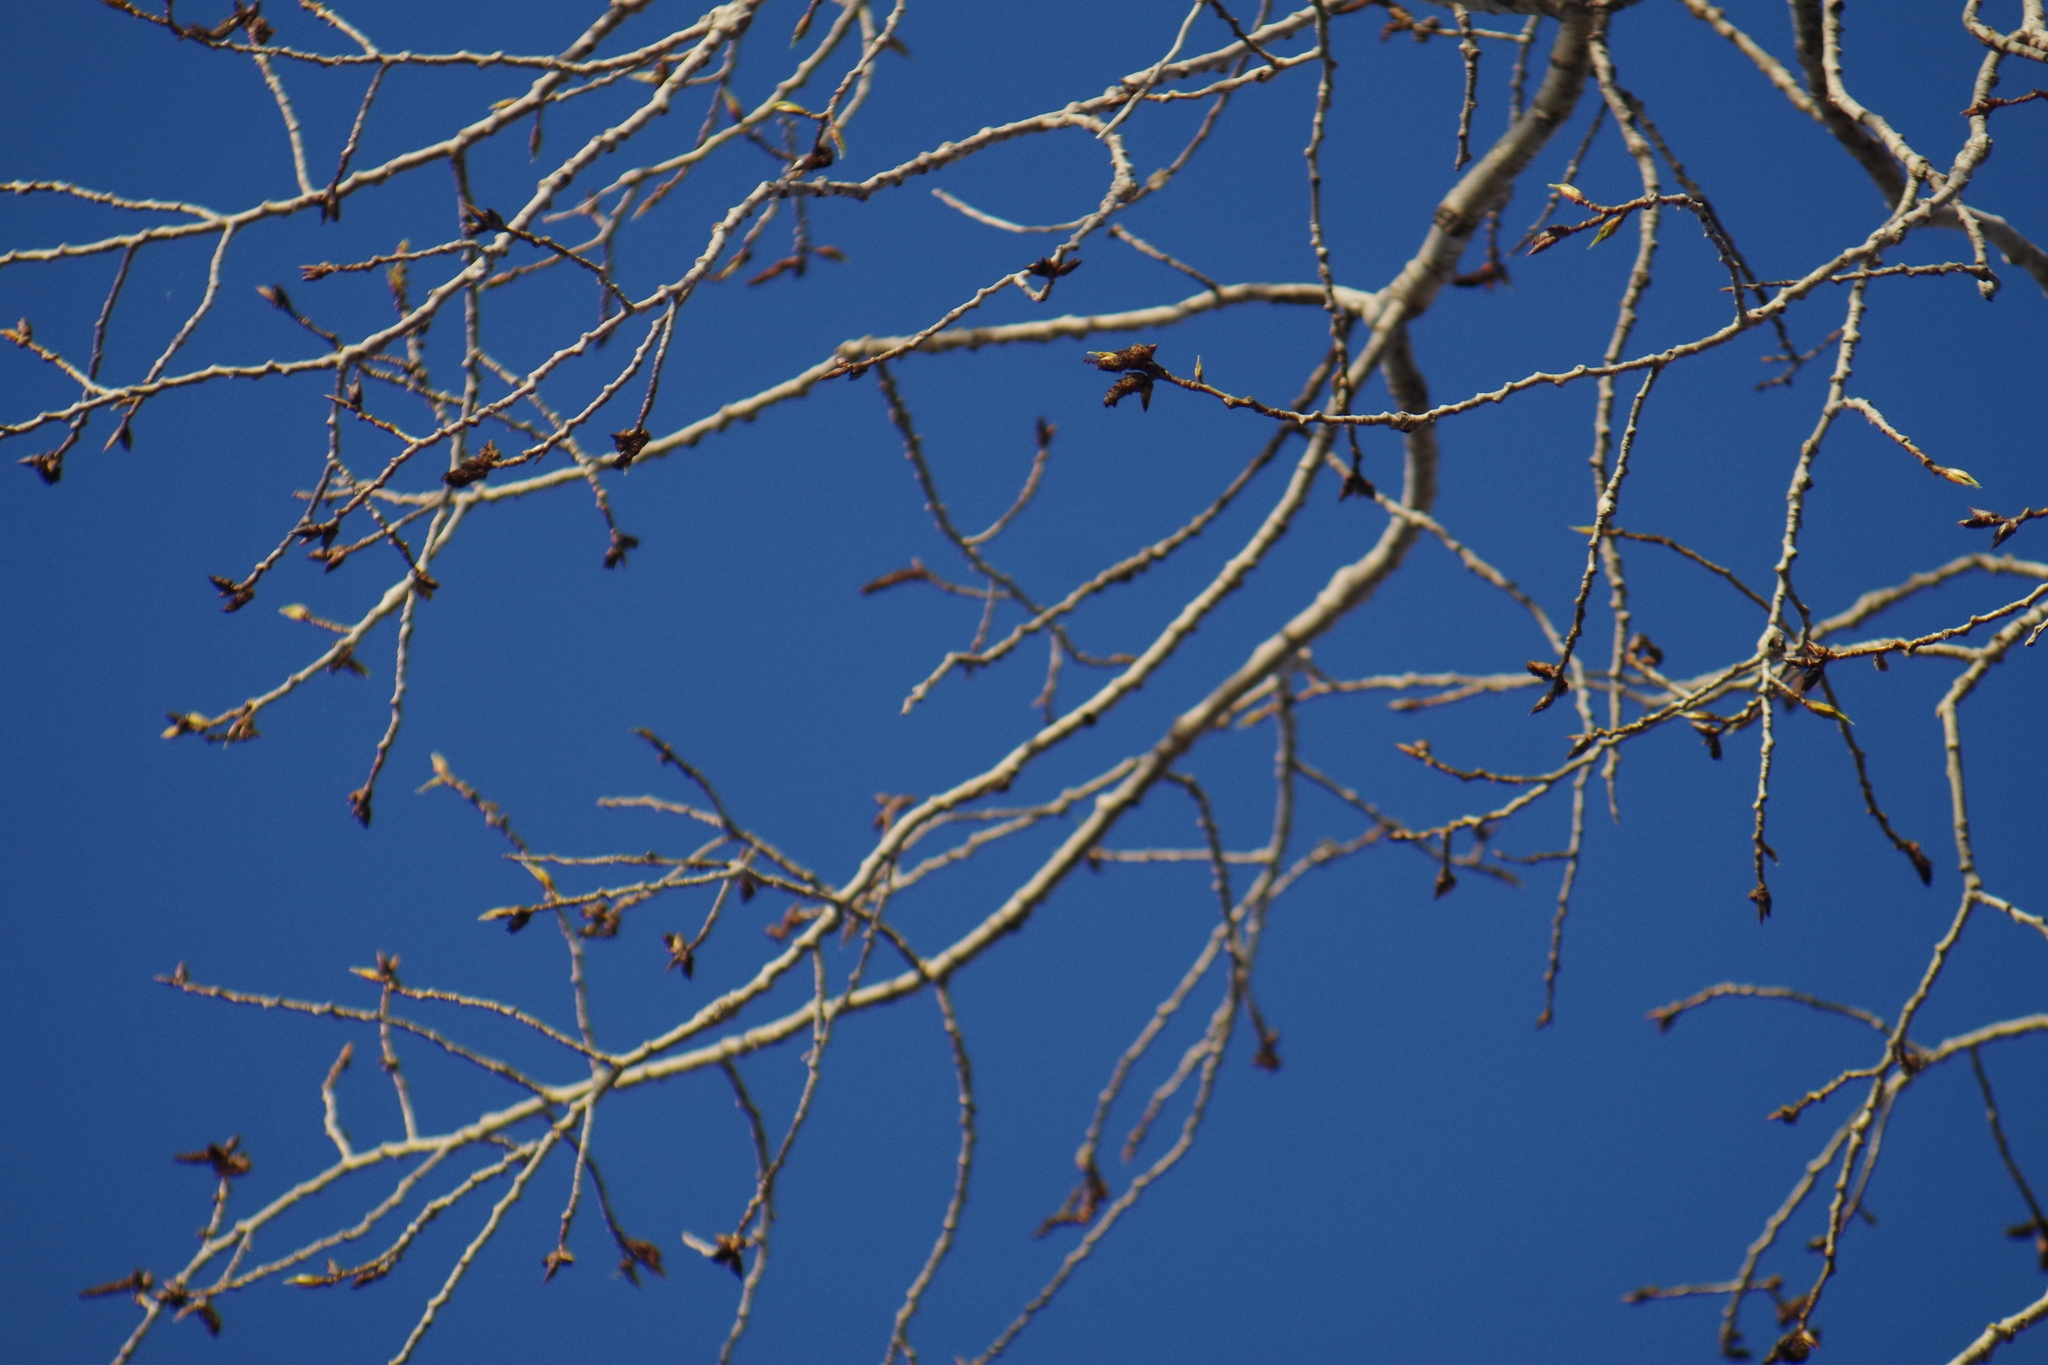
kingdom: Plantae
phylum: Tracheophyta
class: Magnoliopsida
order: Malpighiales
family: Salicaceae
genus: Populus
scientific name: Populus balsamifera
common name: Balsam poplar
